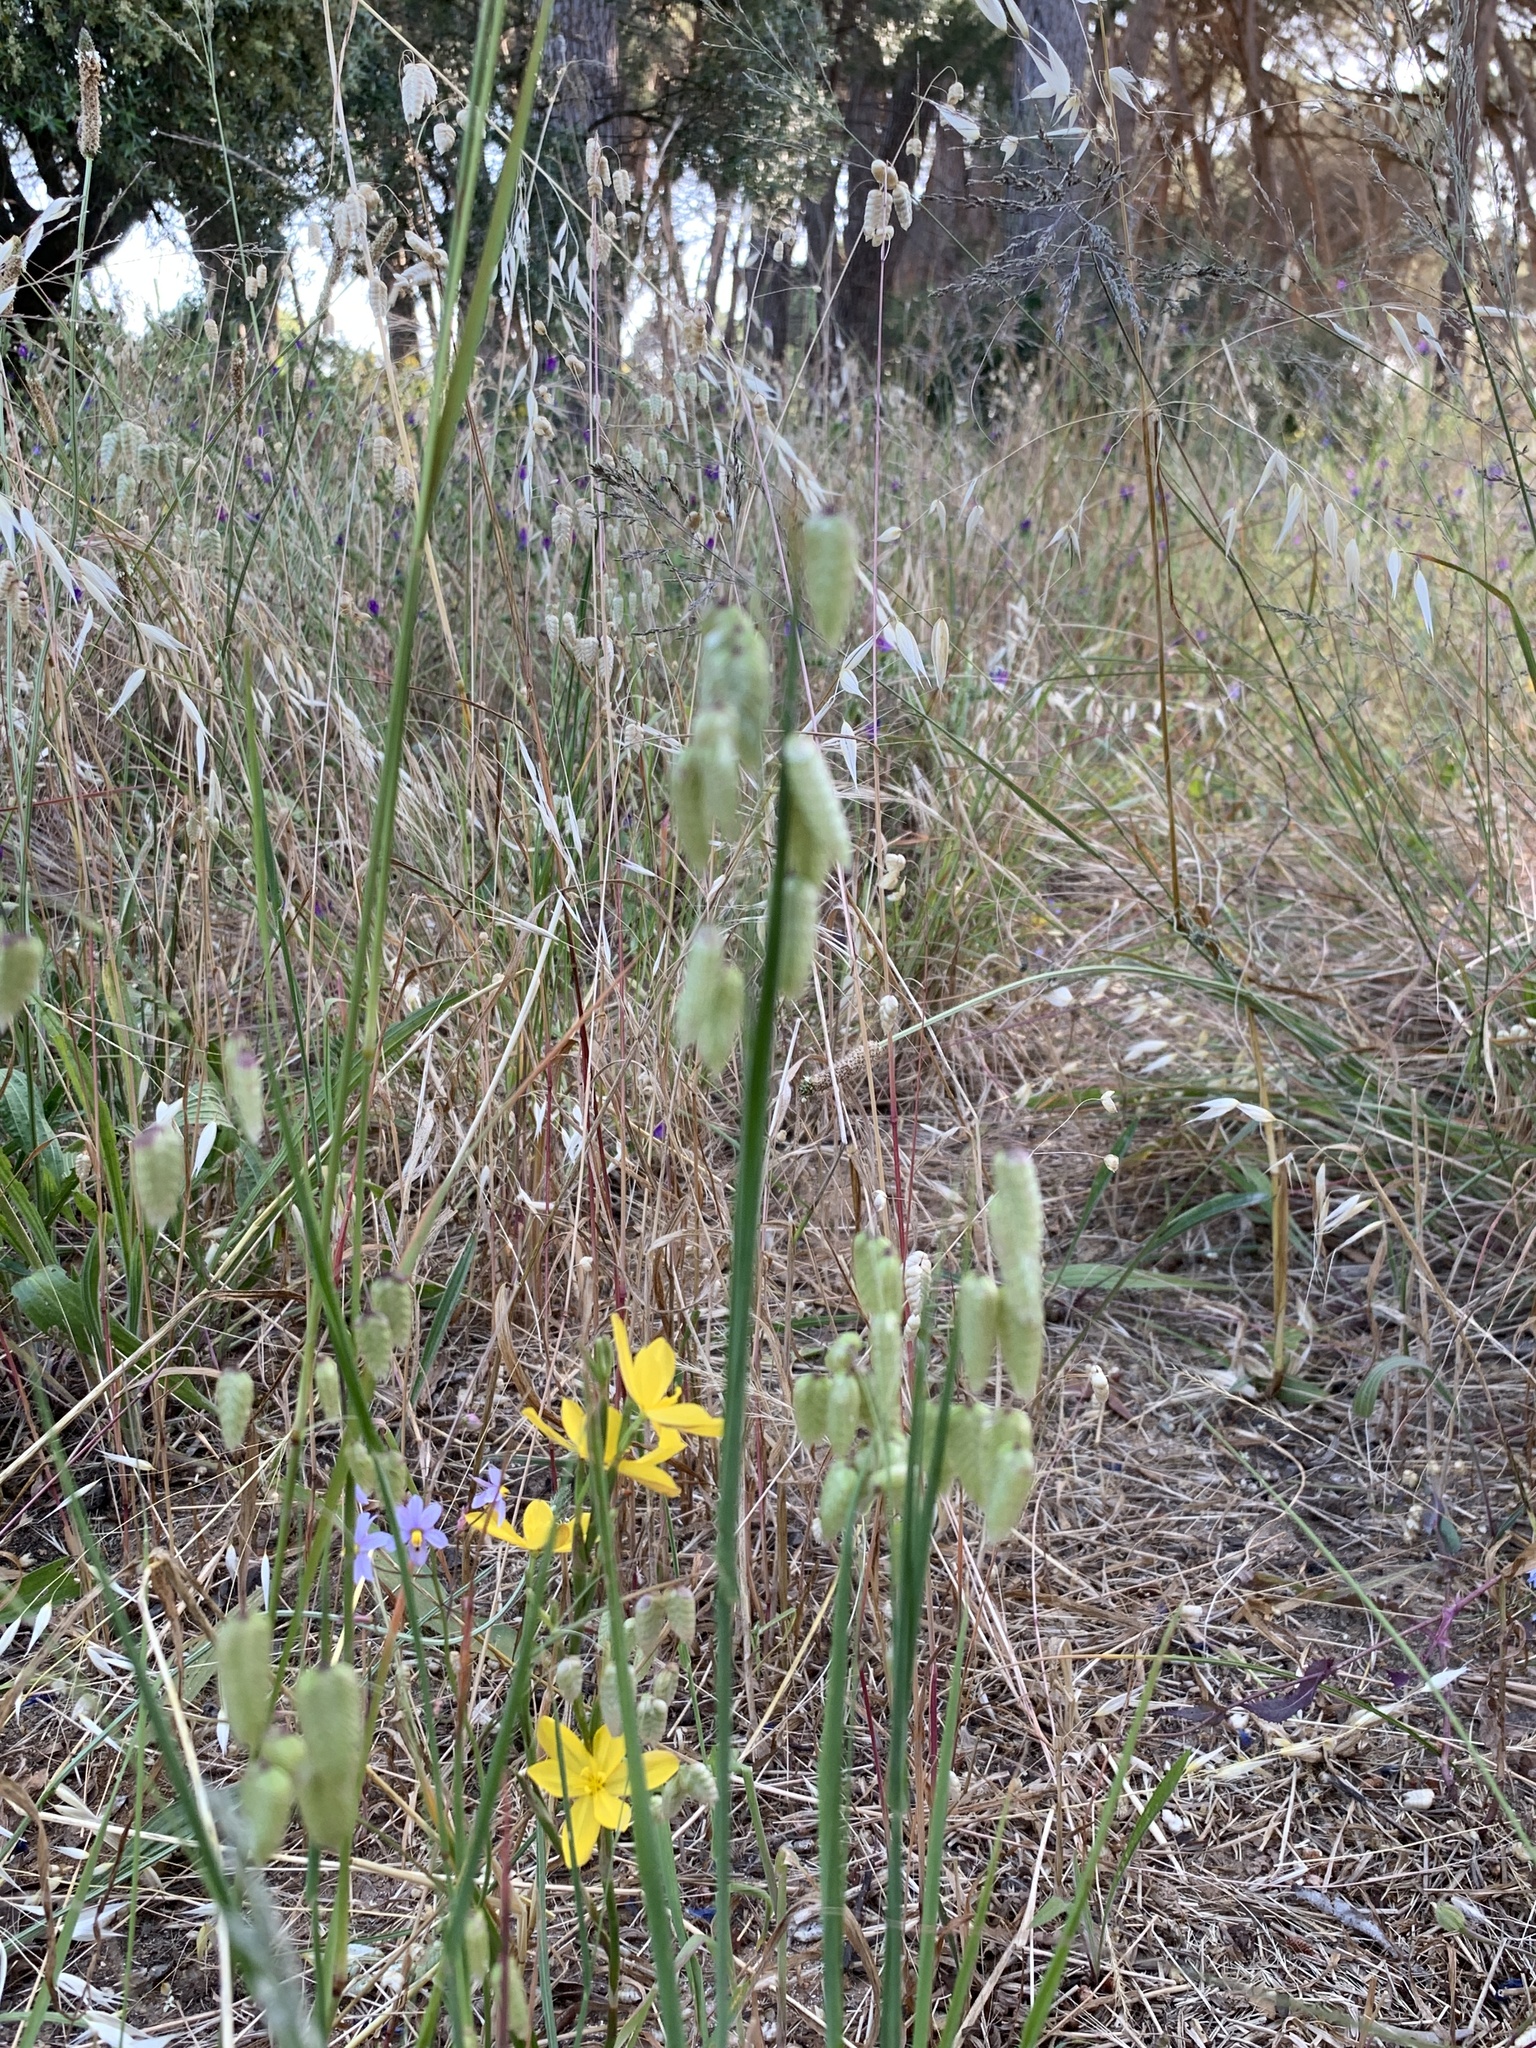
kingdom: Plantae
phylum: Tracheophyta
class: Liliopsida
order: Poales
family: Poaceae
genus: Briza
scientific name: Briza maxima
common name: Big quakinggrass
